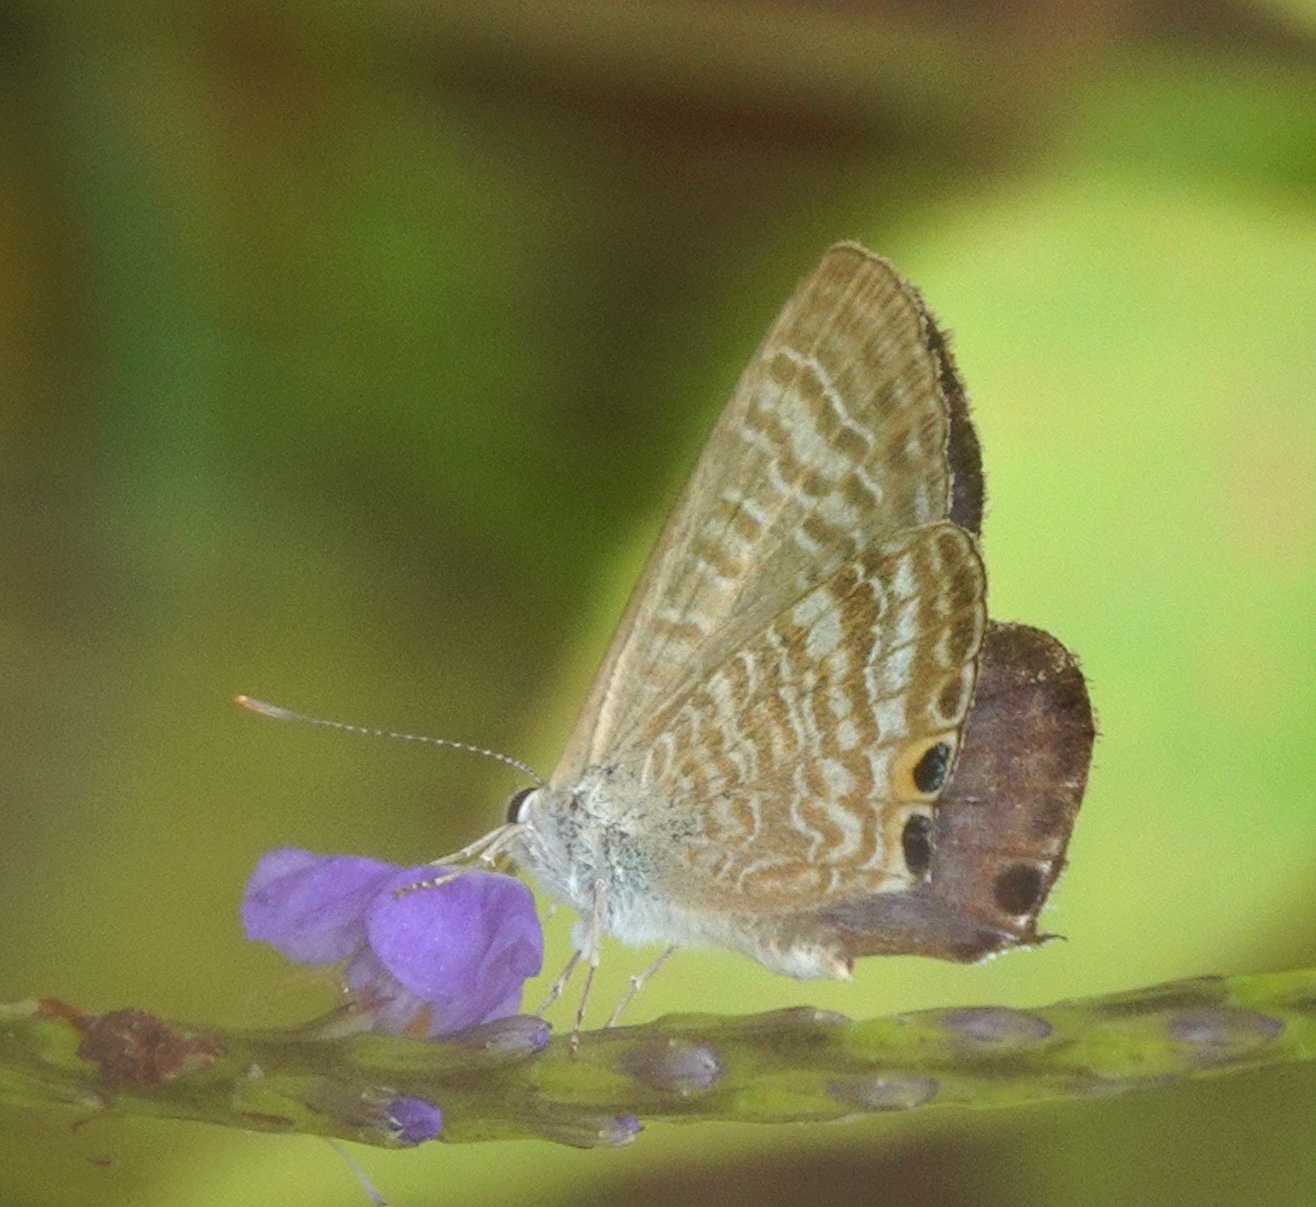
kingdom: Animalia
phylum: Arthropoda
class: Insecta
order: Lepidoptera
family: Lycaenidae
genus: Lampides
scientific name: Lampides boeticus
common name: Long-tailed blue
